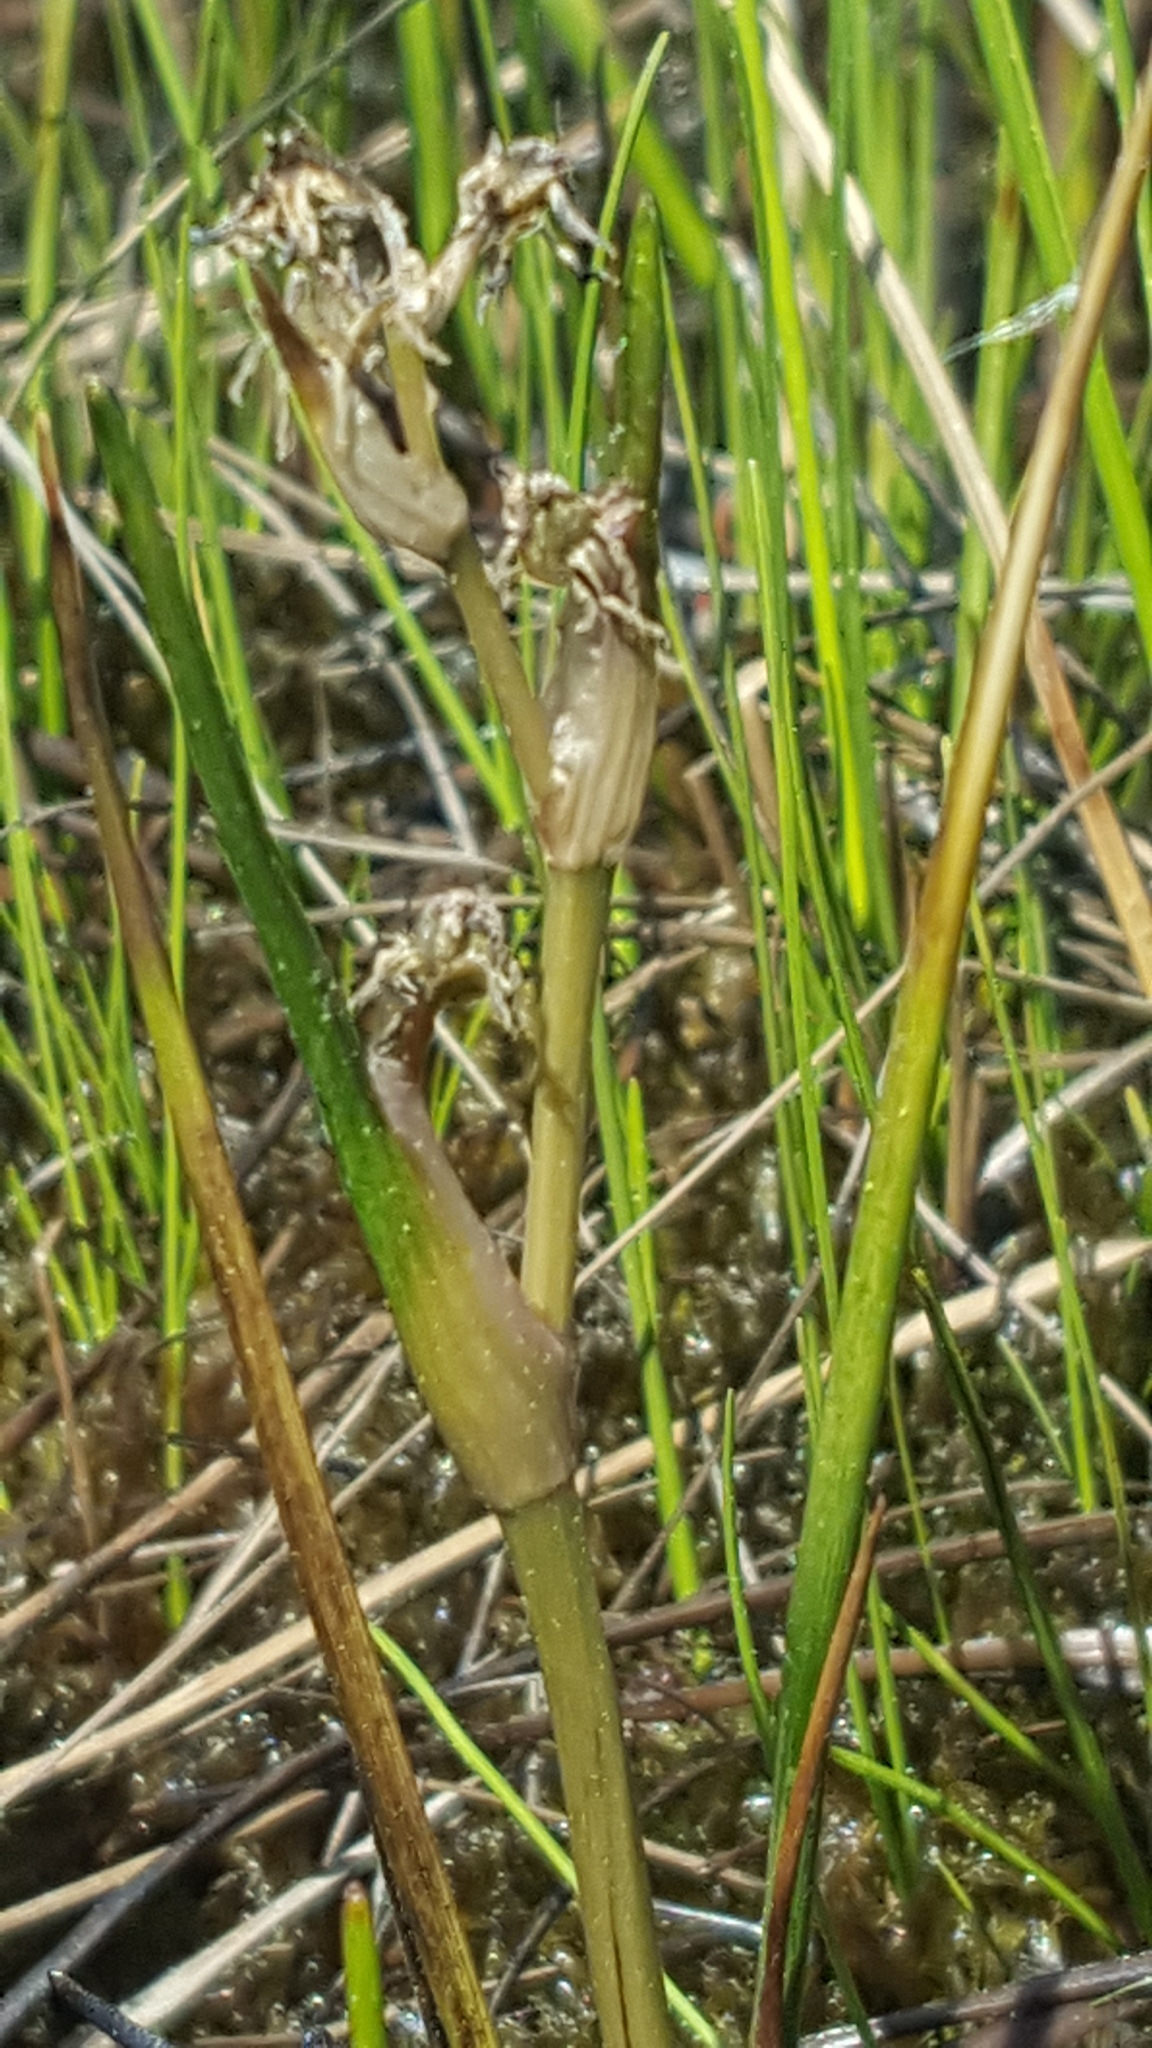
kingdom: Plantae
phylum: Tracheophyta
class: Liliopsida
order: Alismatales
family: Scheuchzeriaceae
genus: Scheuchzeria
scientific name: Scheuchzeria palustris
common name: Rannoch-rush
